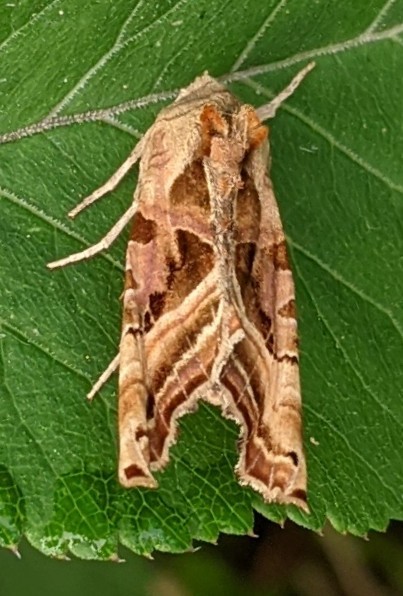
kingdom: Animalia
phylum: Arthropoda
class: Insecta
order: Lepidoptera
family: Noctuidae
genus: Phlogophora
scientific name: Phlogophora iris
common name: Olive angle shades
